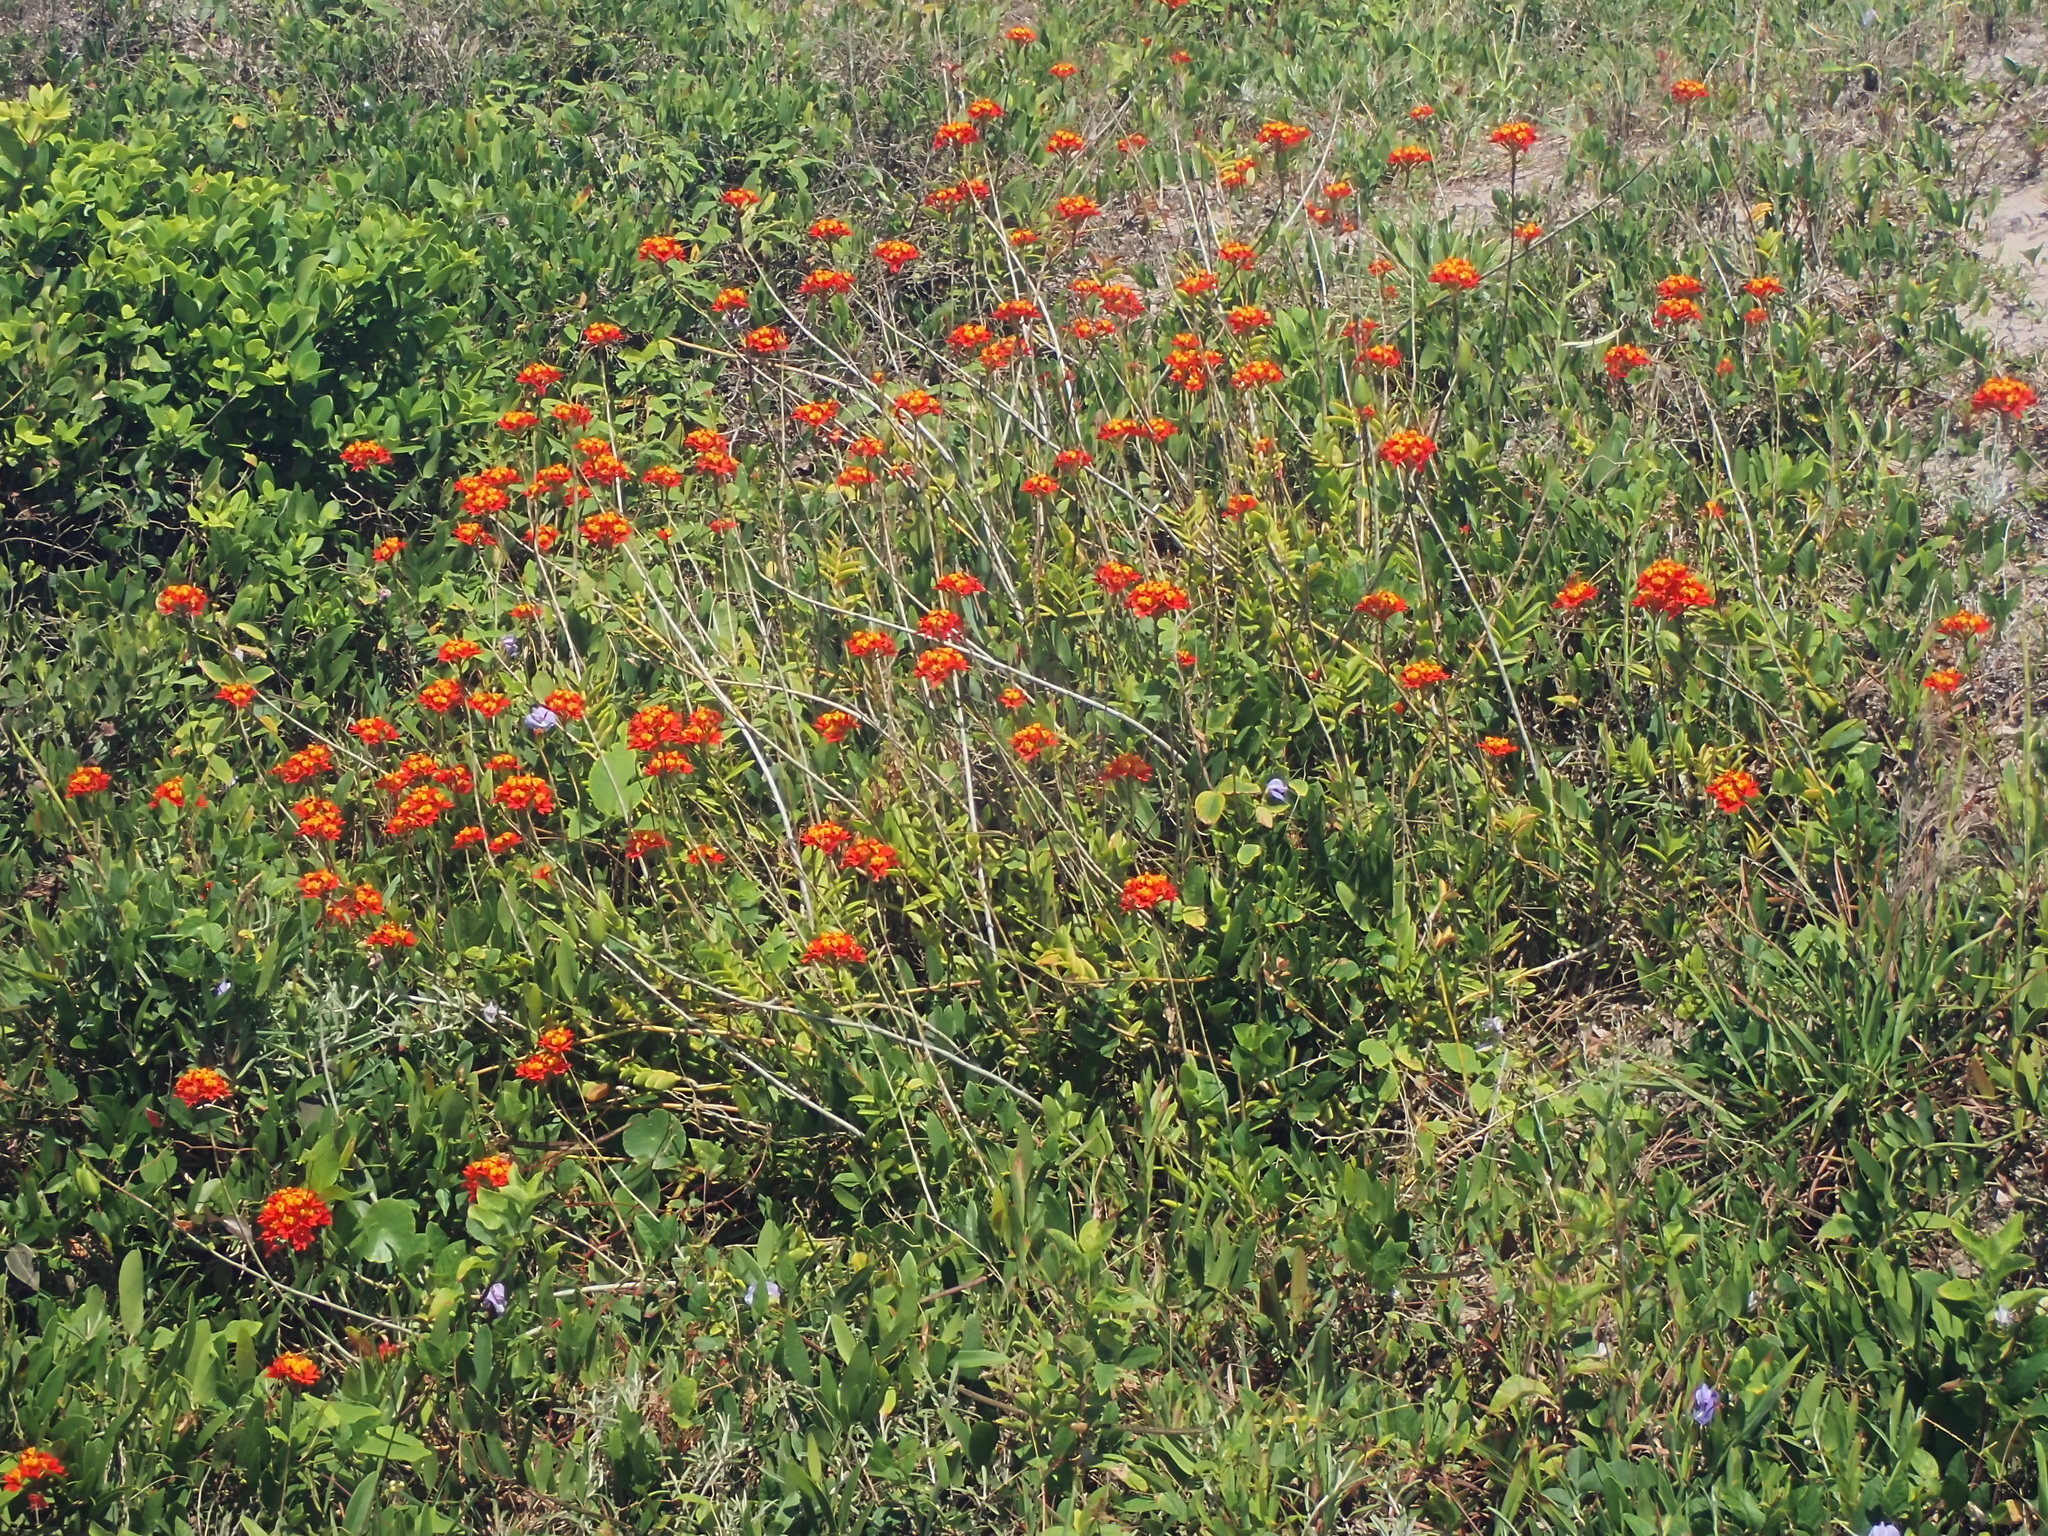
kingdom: Plantae
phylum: Tracheophyta
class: Liliopsida
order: Asparagales
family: Orchidaceae
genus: Epidendrum
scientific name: Epidendrum fulgens
